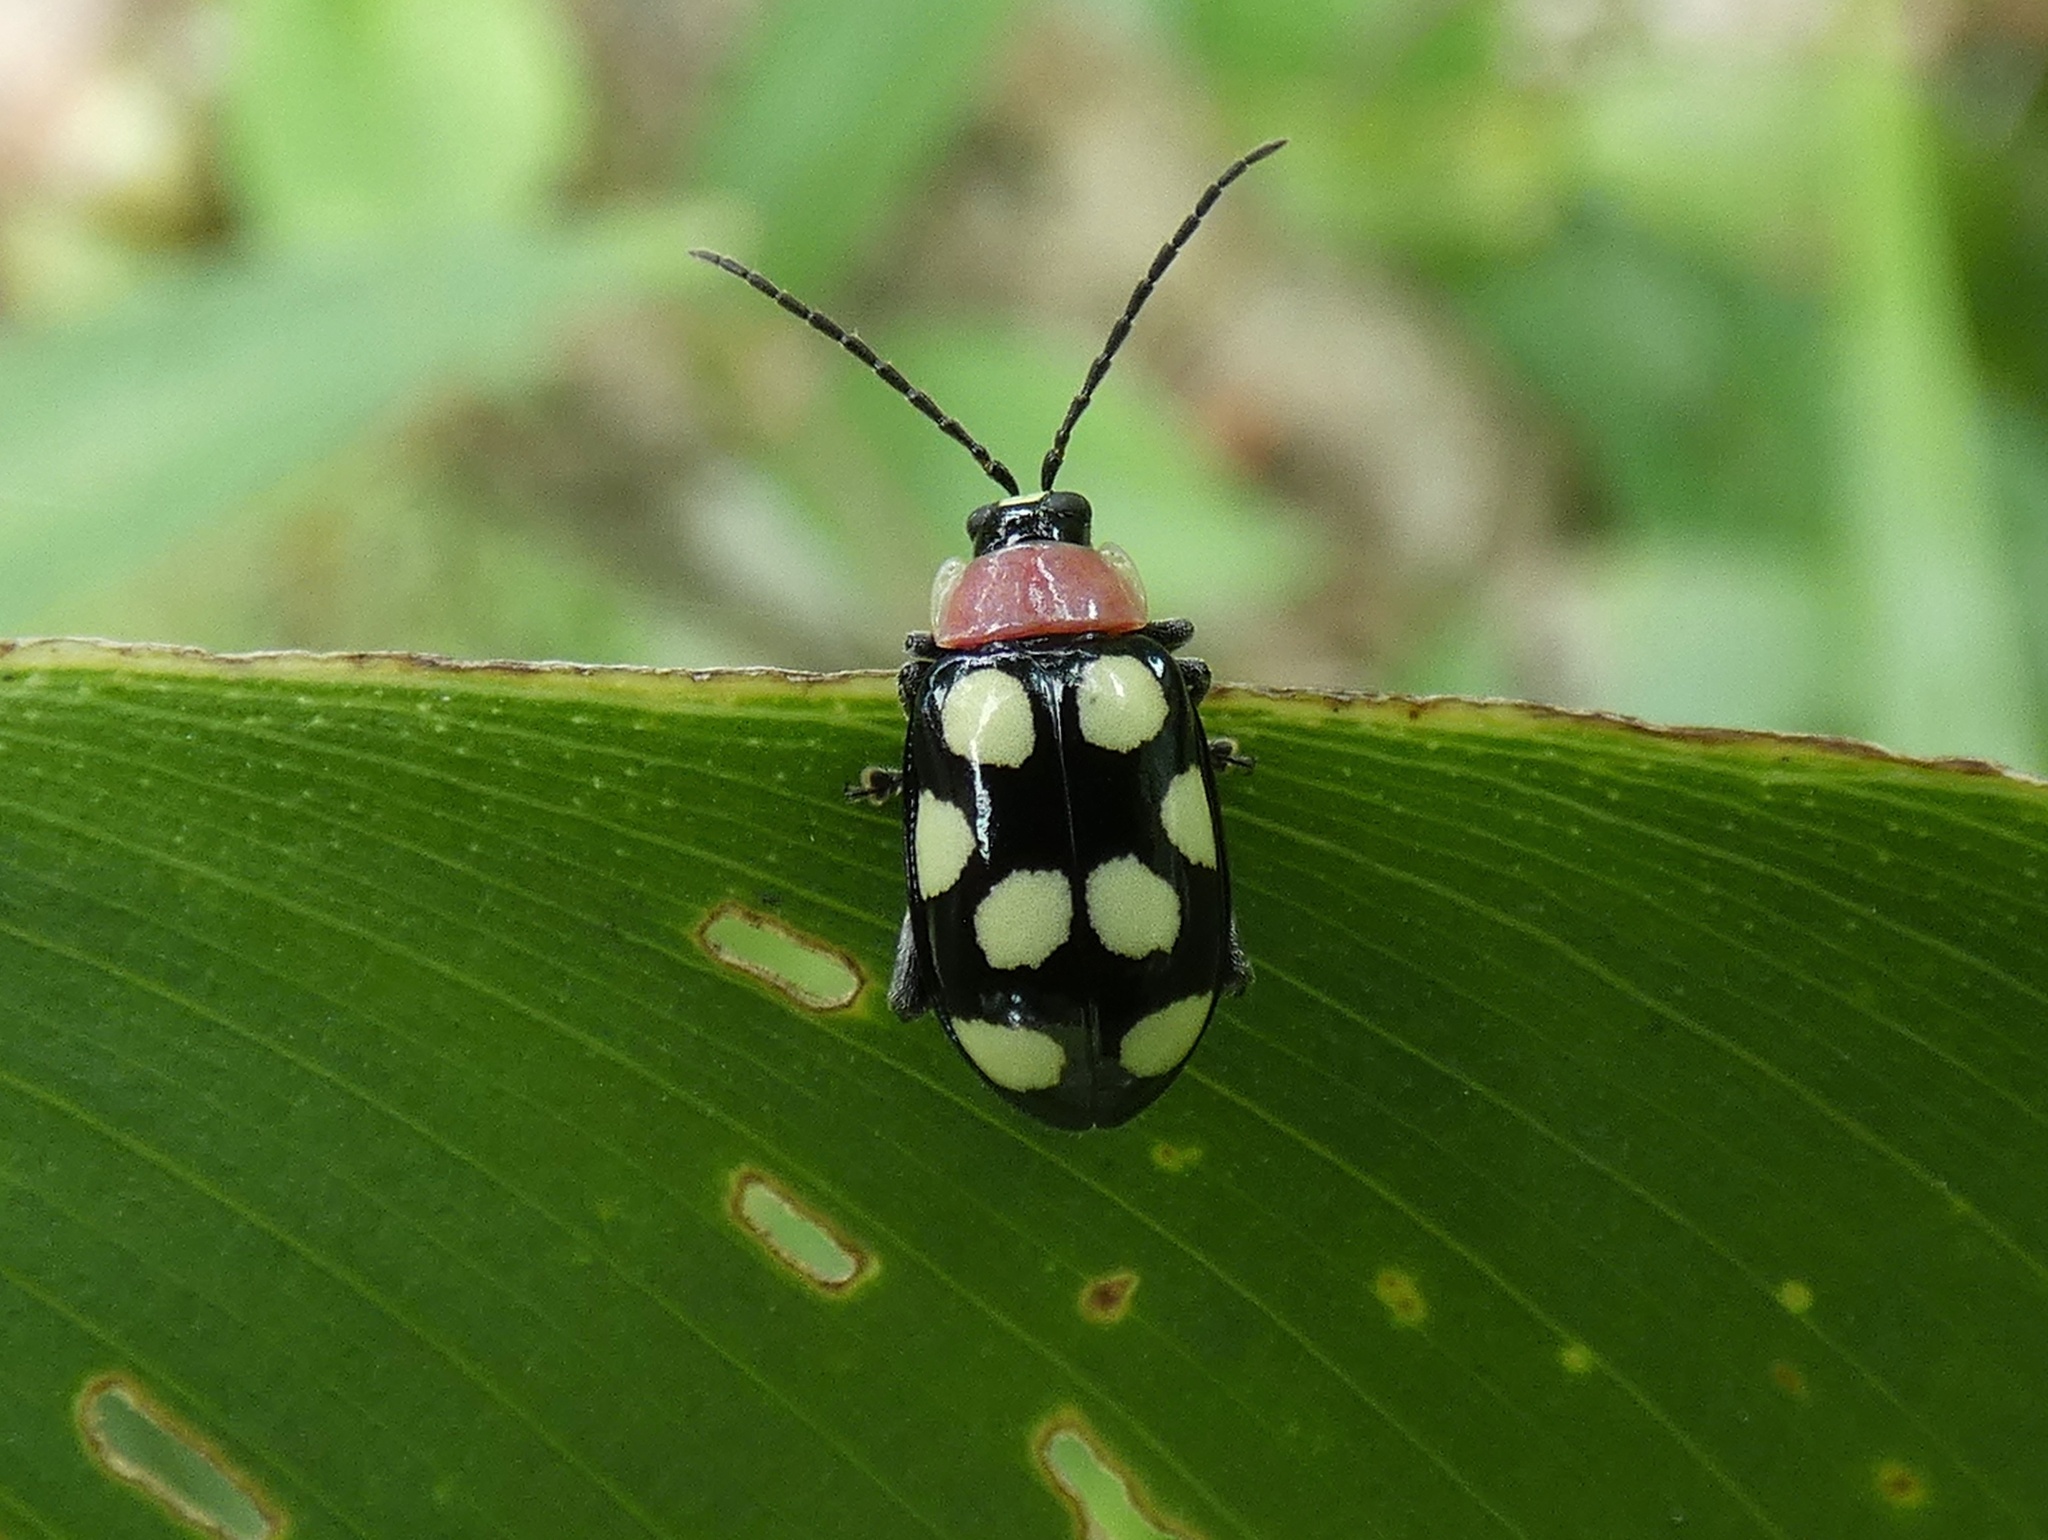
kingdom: Animalia
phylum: Arthropoda
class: Insecta
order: Coleoptera
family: Chrysomelidae
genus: Omophoita
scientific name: Omophoita aequinoctialis
